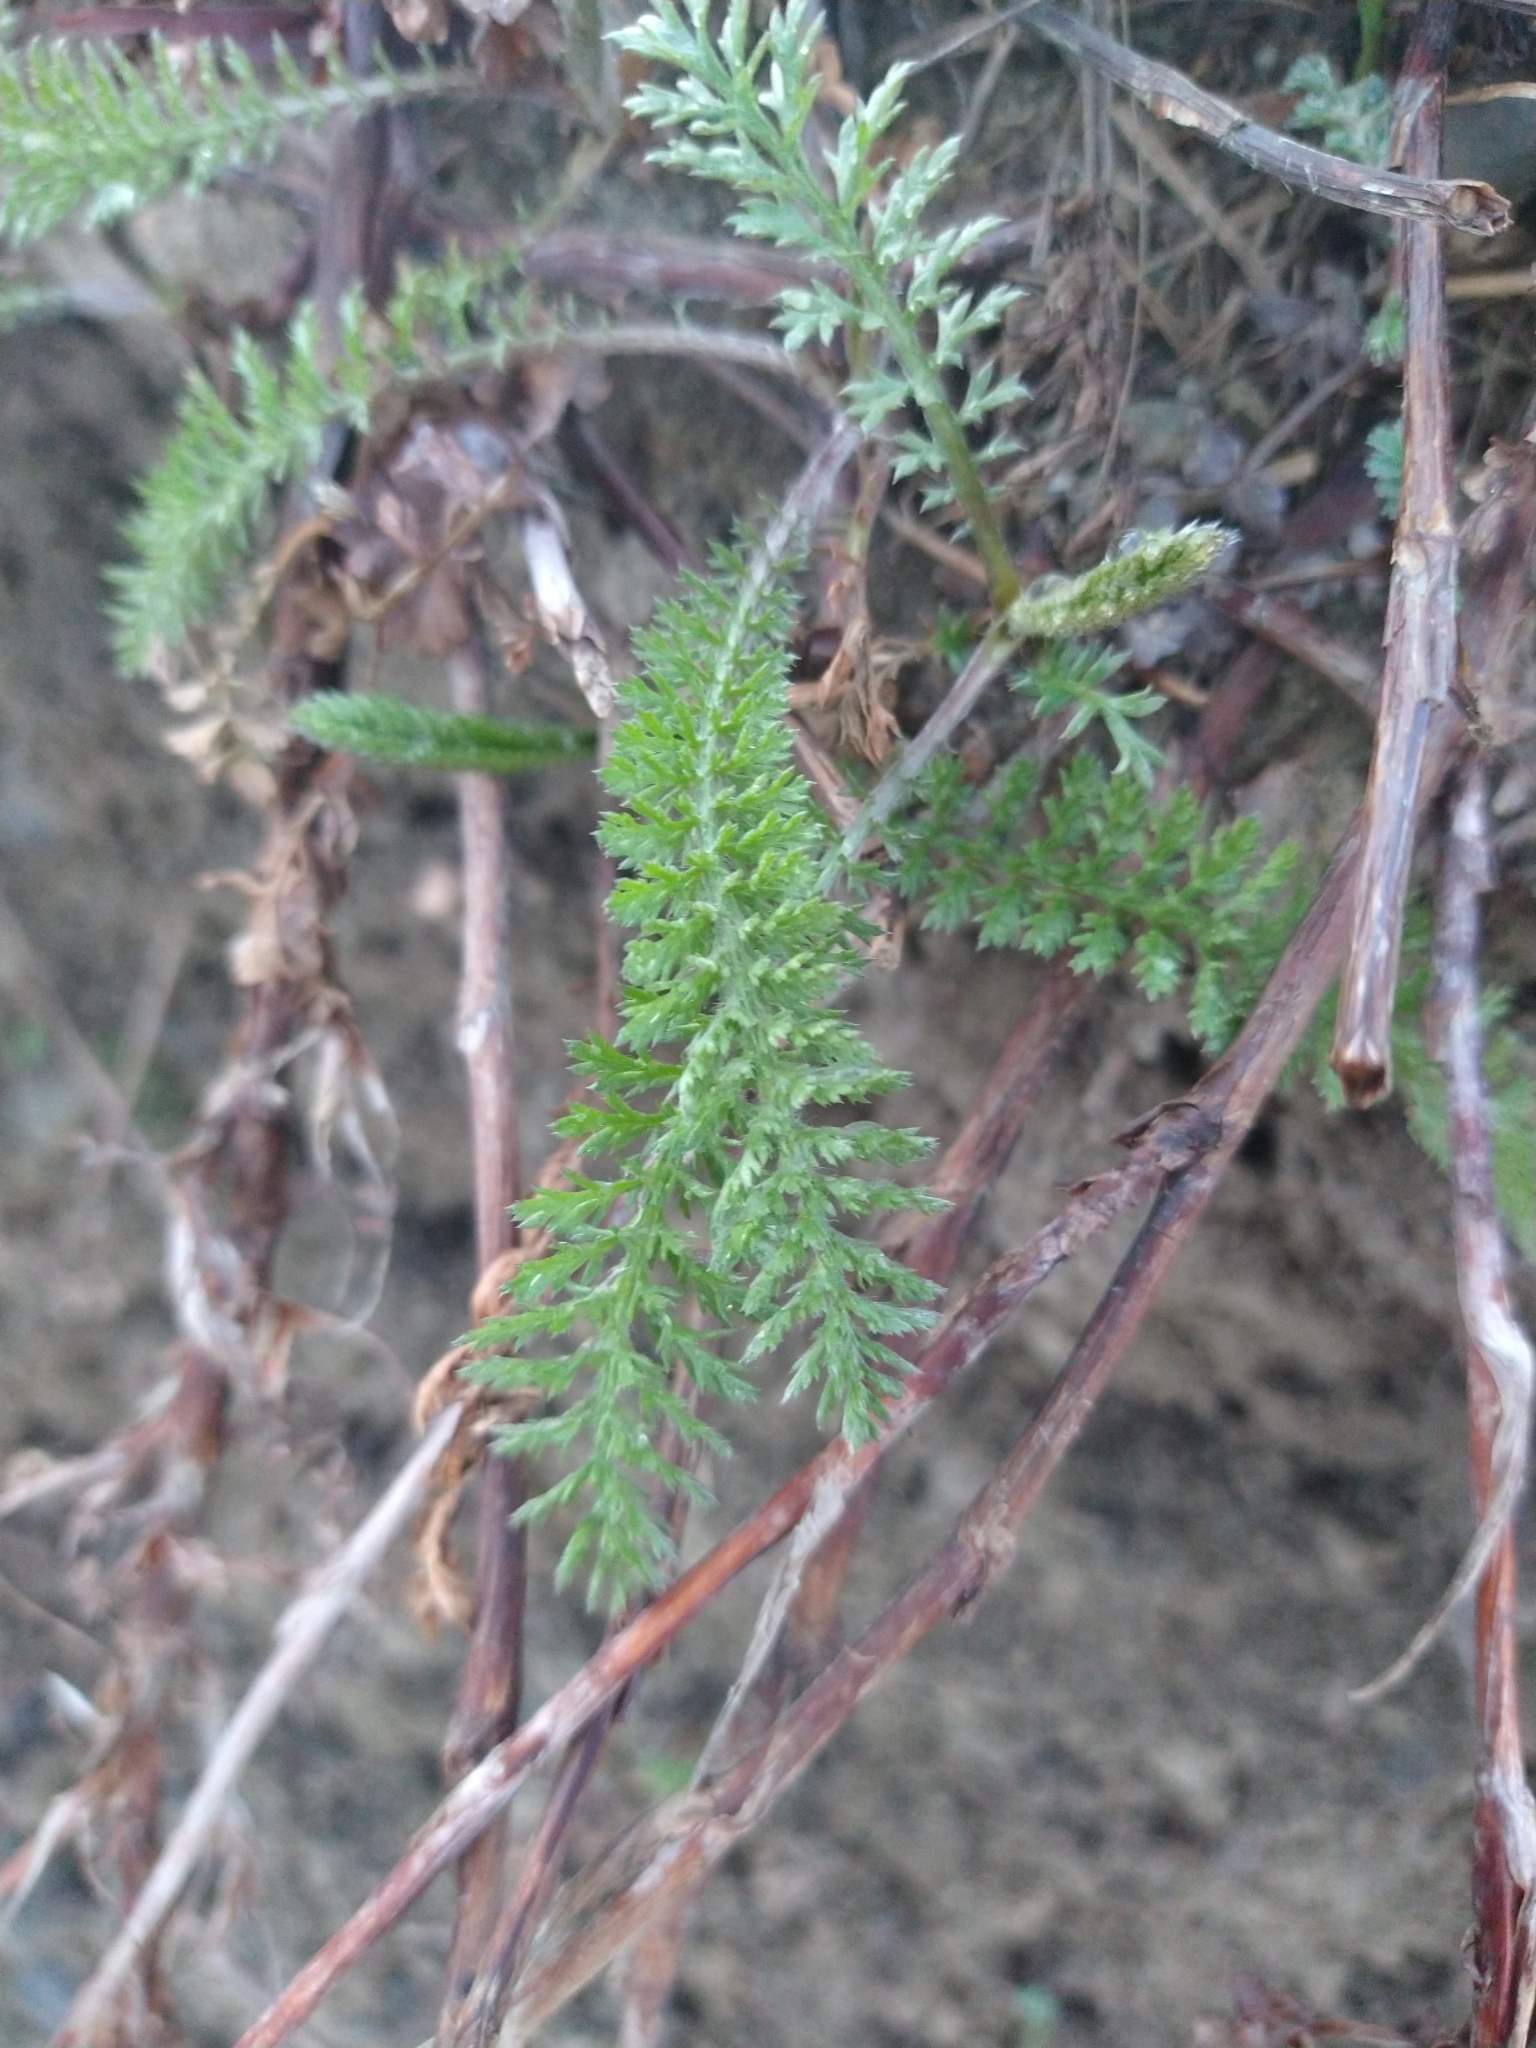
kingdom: Plantae
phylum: Tracheophyta
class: Magnoliopsida
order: Asterales
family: Asteraceae
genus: Achillea
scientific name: Achillea millefolium
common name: Yarrow
